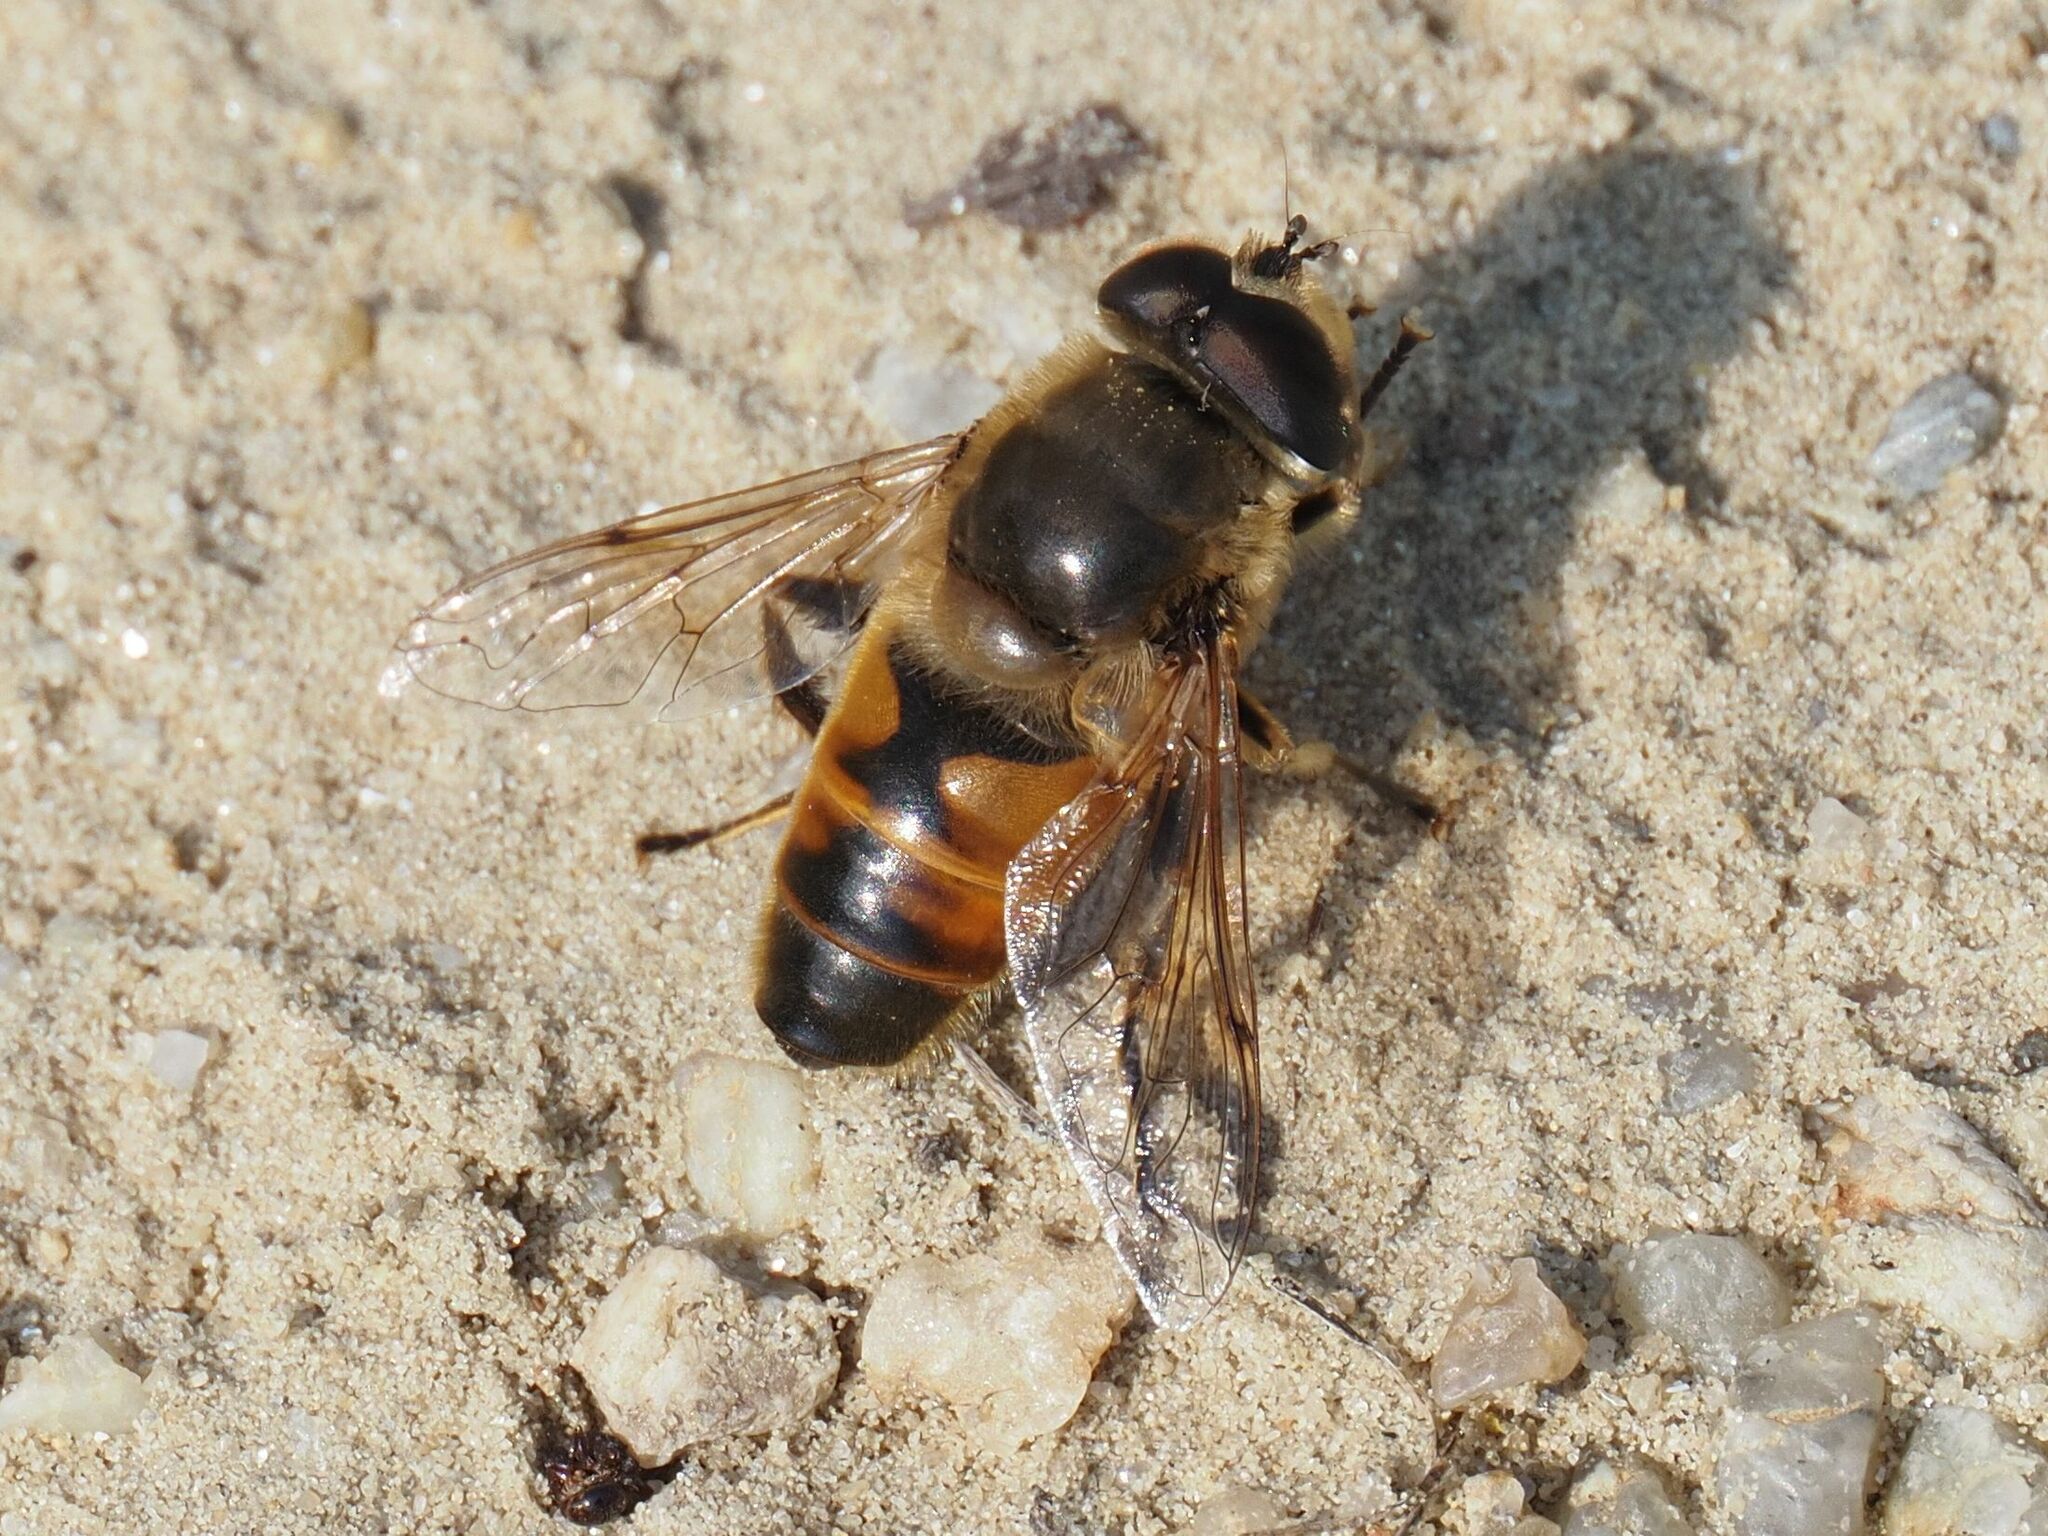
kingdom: Animalia
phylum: Arthropoda
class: Insecta
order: Diptera
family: Syrphidae
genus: Eristalis
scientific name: Eristalis tenax
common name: Drone fly
